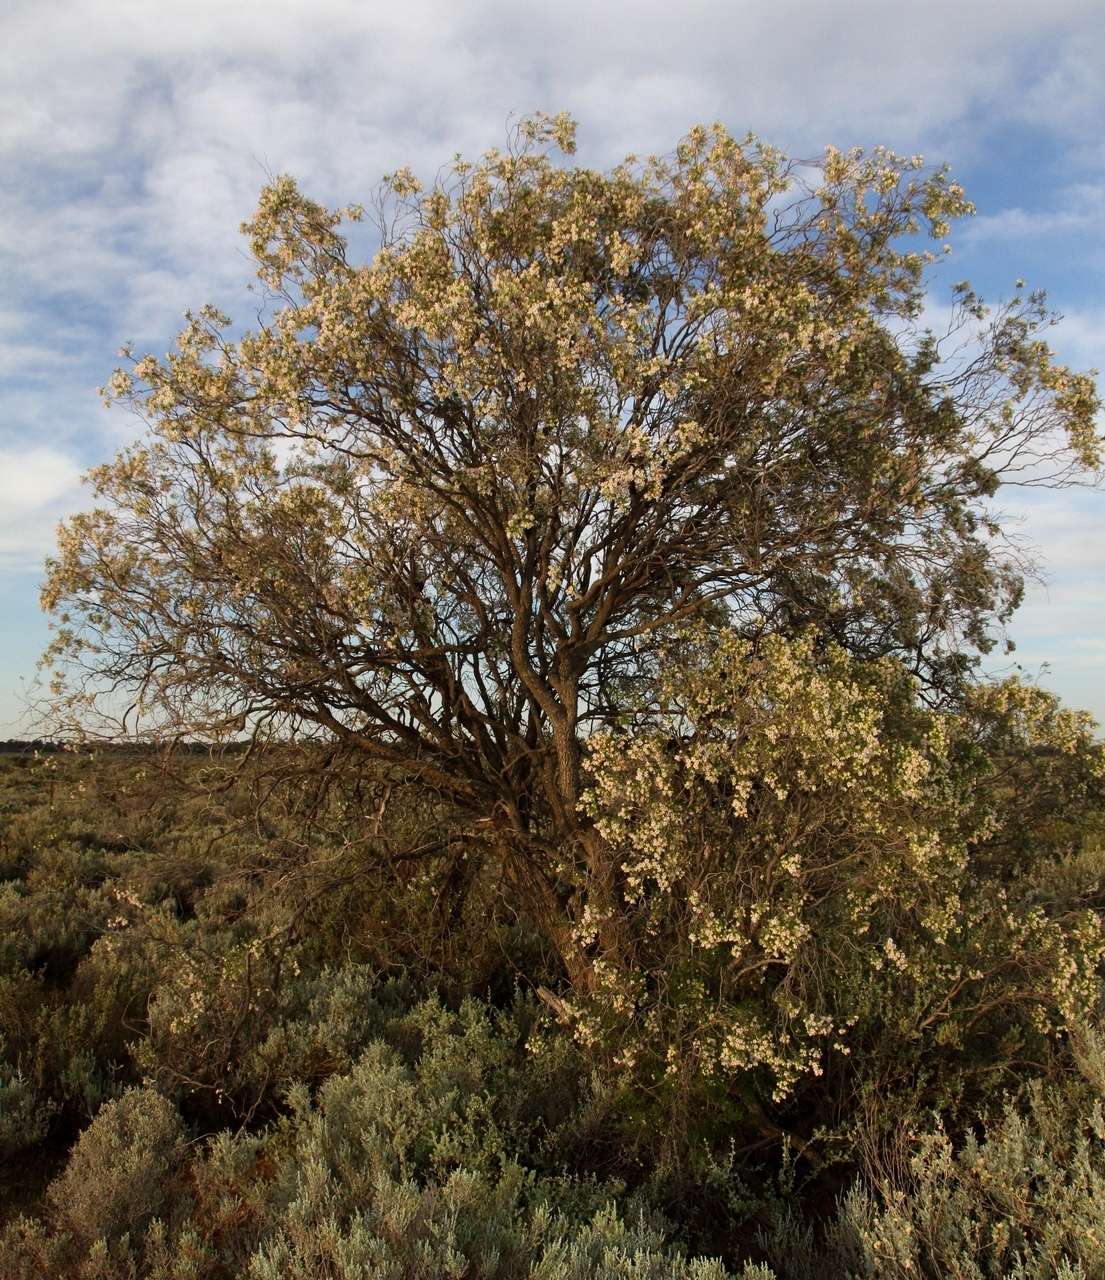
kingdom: Plantae
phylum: Tracheophyta
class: Magnoliopsida
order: Lamiales
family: Scrophulariaceae
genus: Eremophila
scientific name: Eremophila sturtii
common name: Narrow-leaf emubush
